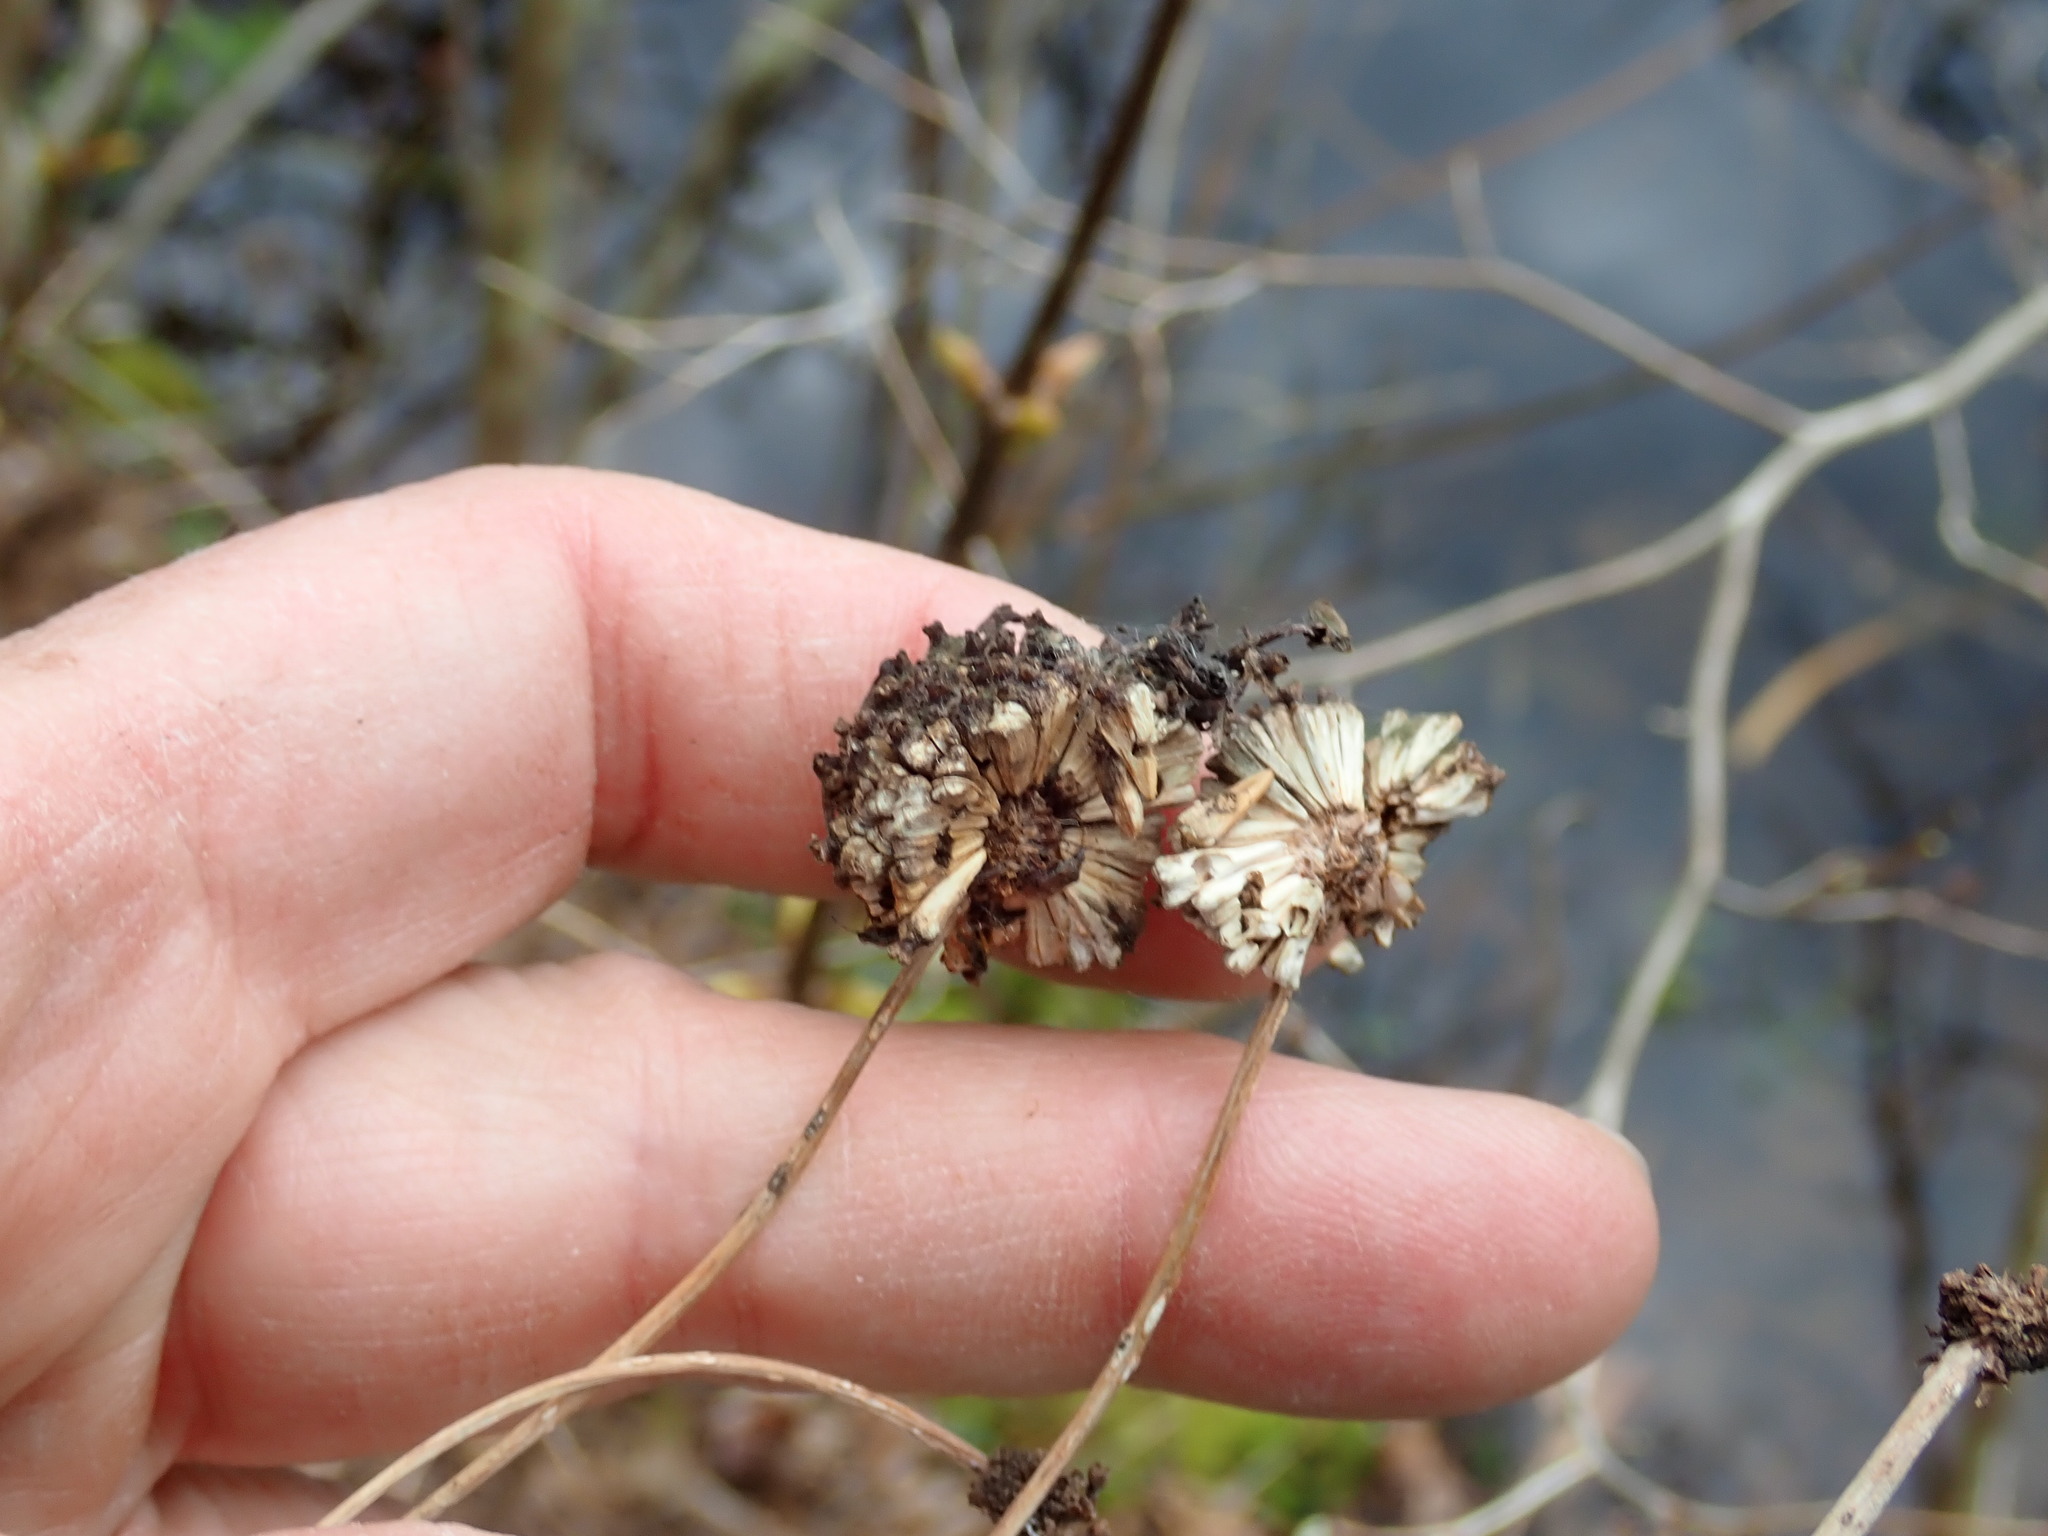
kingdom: Plantae
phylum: Tracheophyta
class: Magnoliopsida
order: Gentianales
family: Rubiaceae
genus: Cephalanthus
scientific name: Cephalanthus occidentalis
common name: Button-willow
